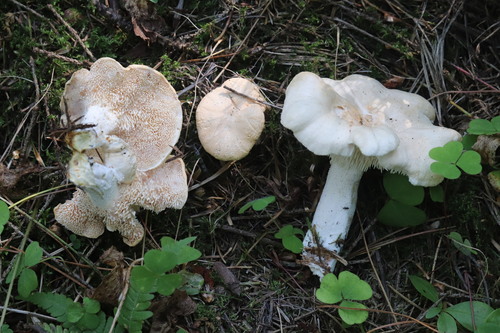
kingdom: Fungi
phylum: Basidiomycota
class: Agaricomycetes
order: Cantharellales
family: Hydnaceae
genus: Hydnum
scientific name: Hydnum repandum
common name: Wood hedgehog
